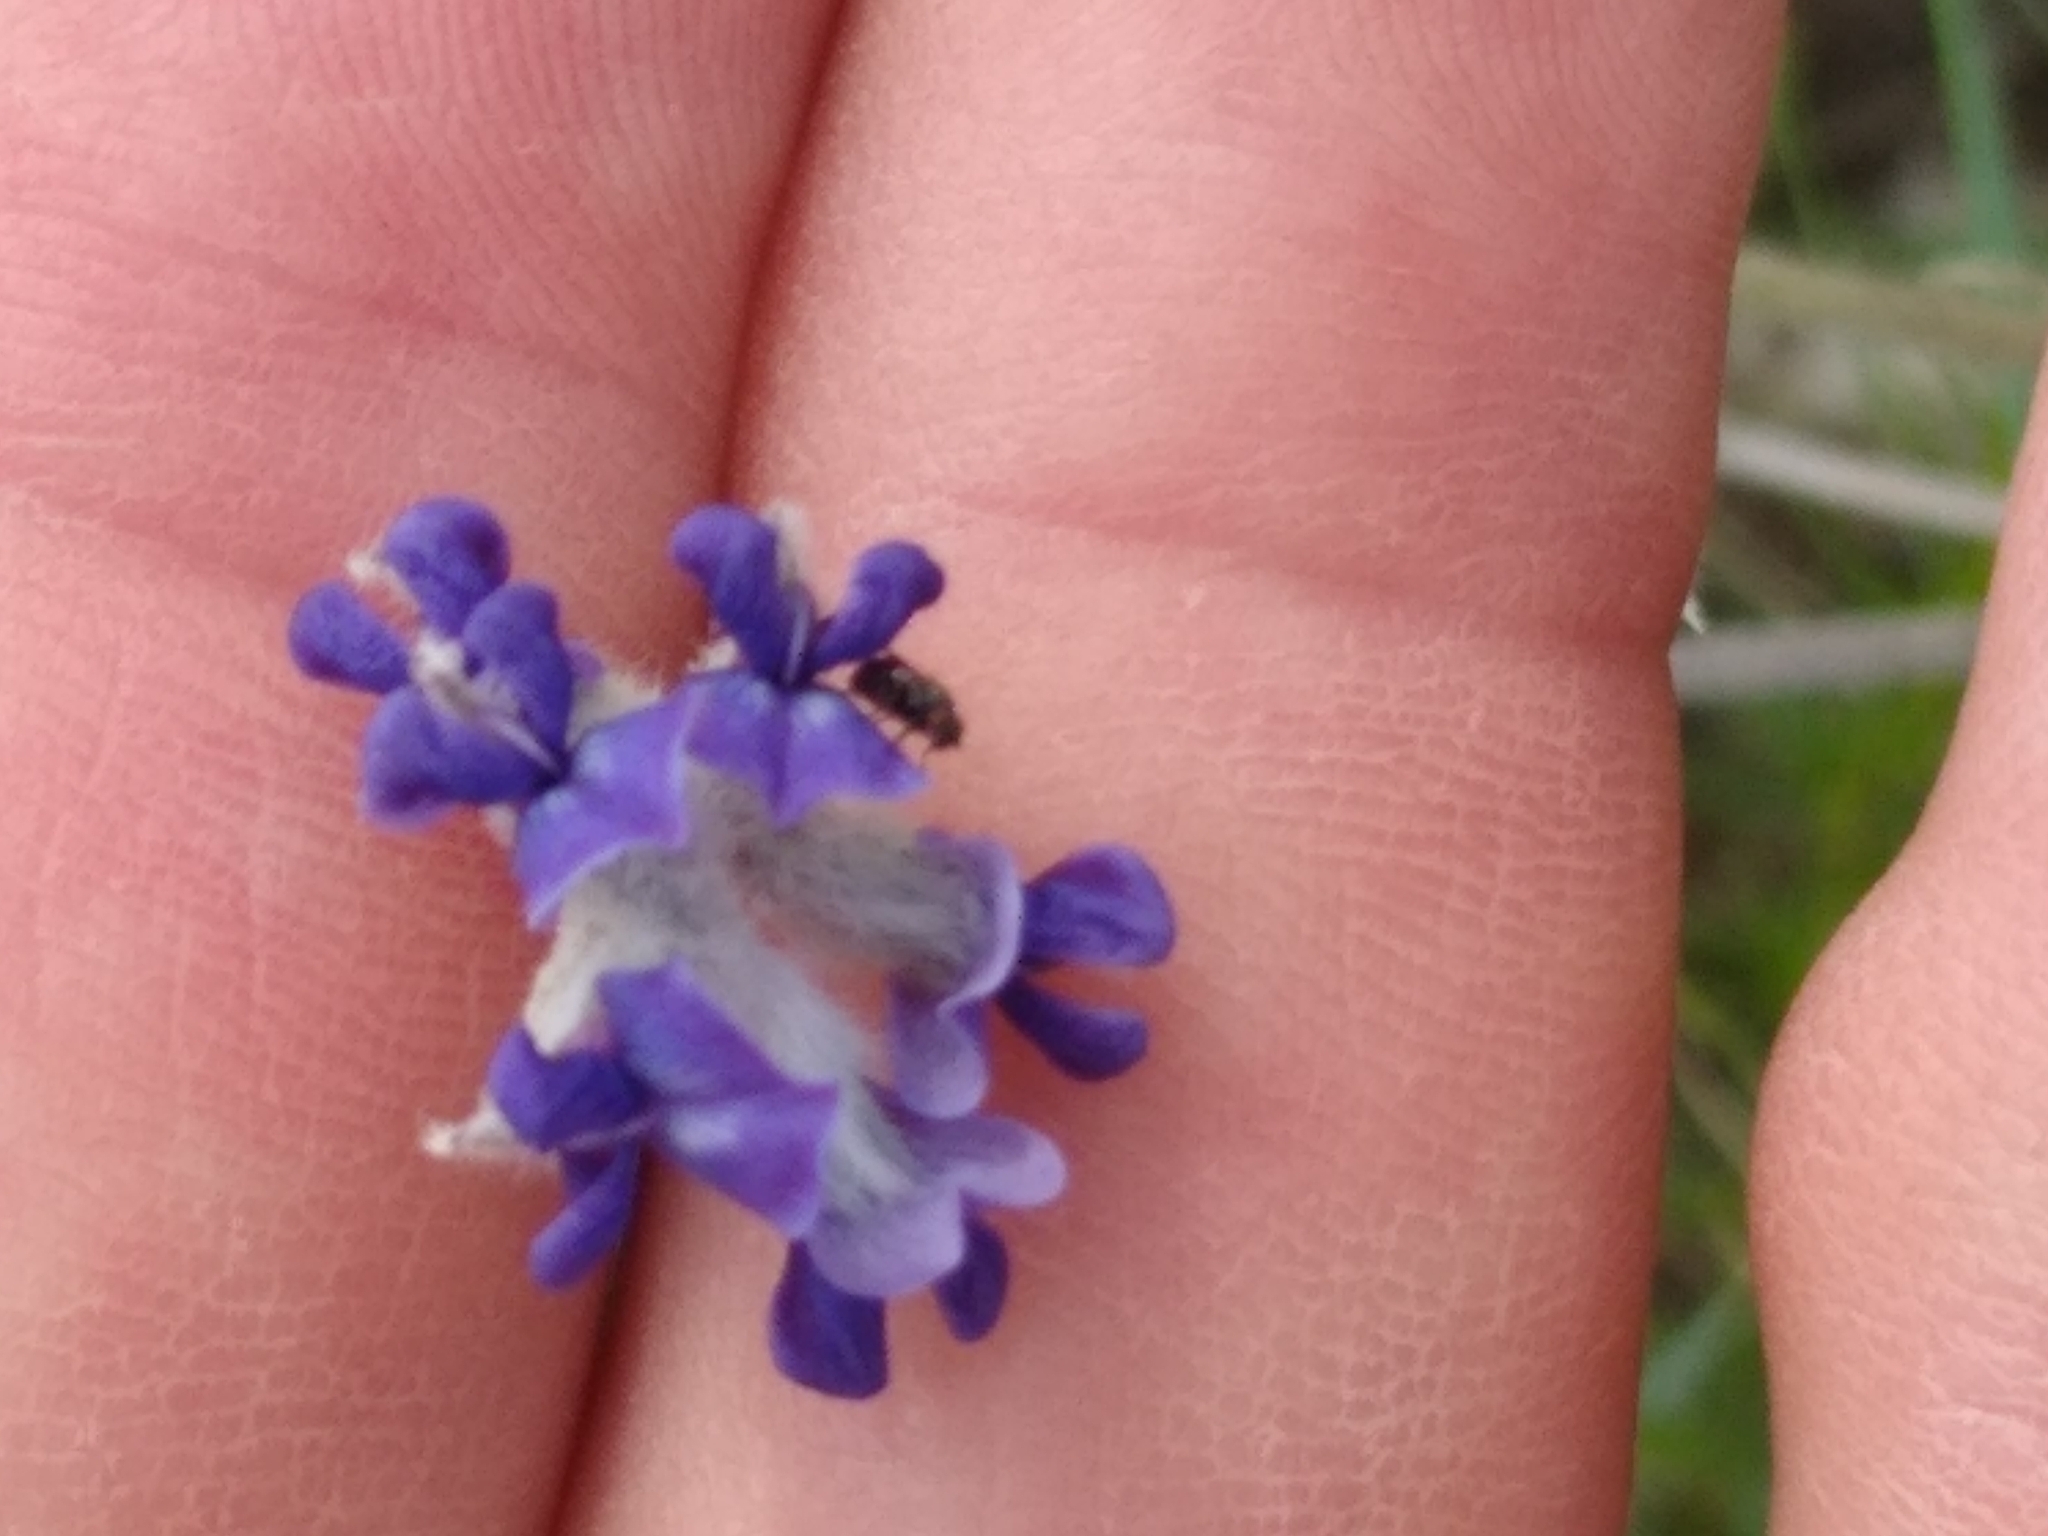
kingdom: Plantae
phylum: Tracheophyta
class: Magnoliopsida
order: Fabales
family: Fabaceae
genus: Pediomelum
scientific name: Pediomelum argophyllum
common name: Silver-leaved indian breadroot
